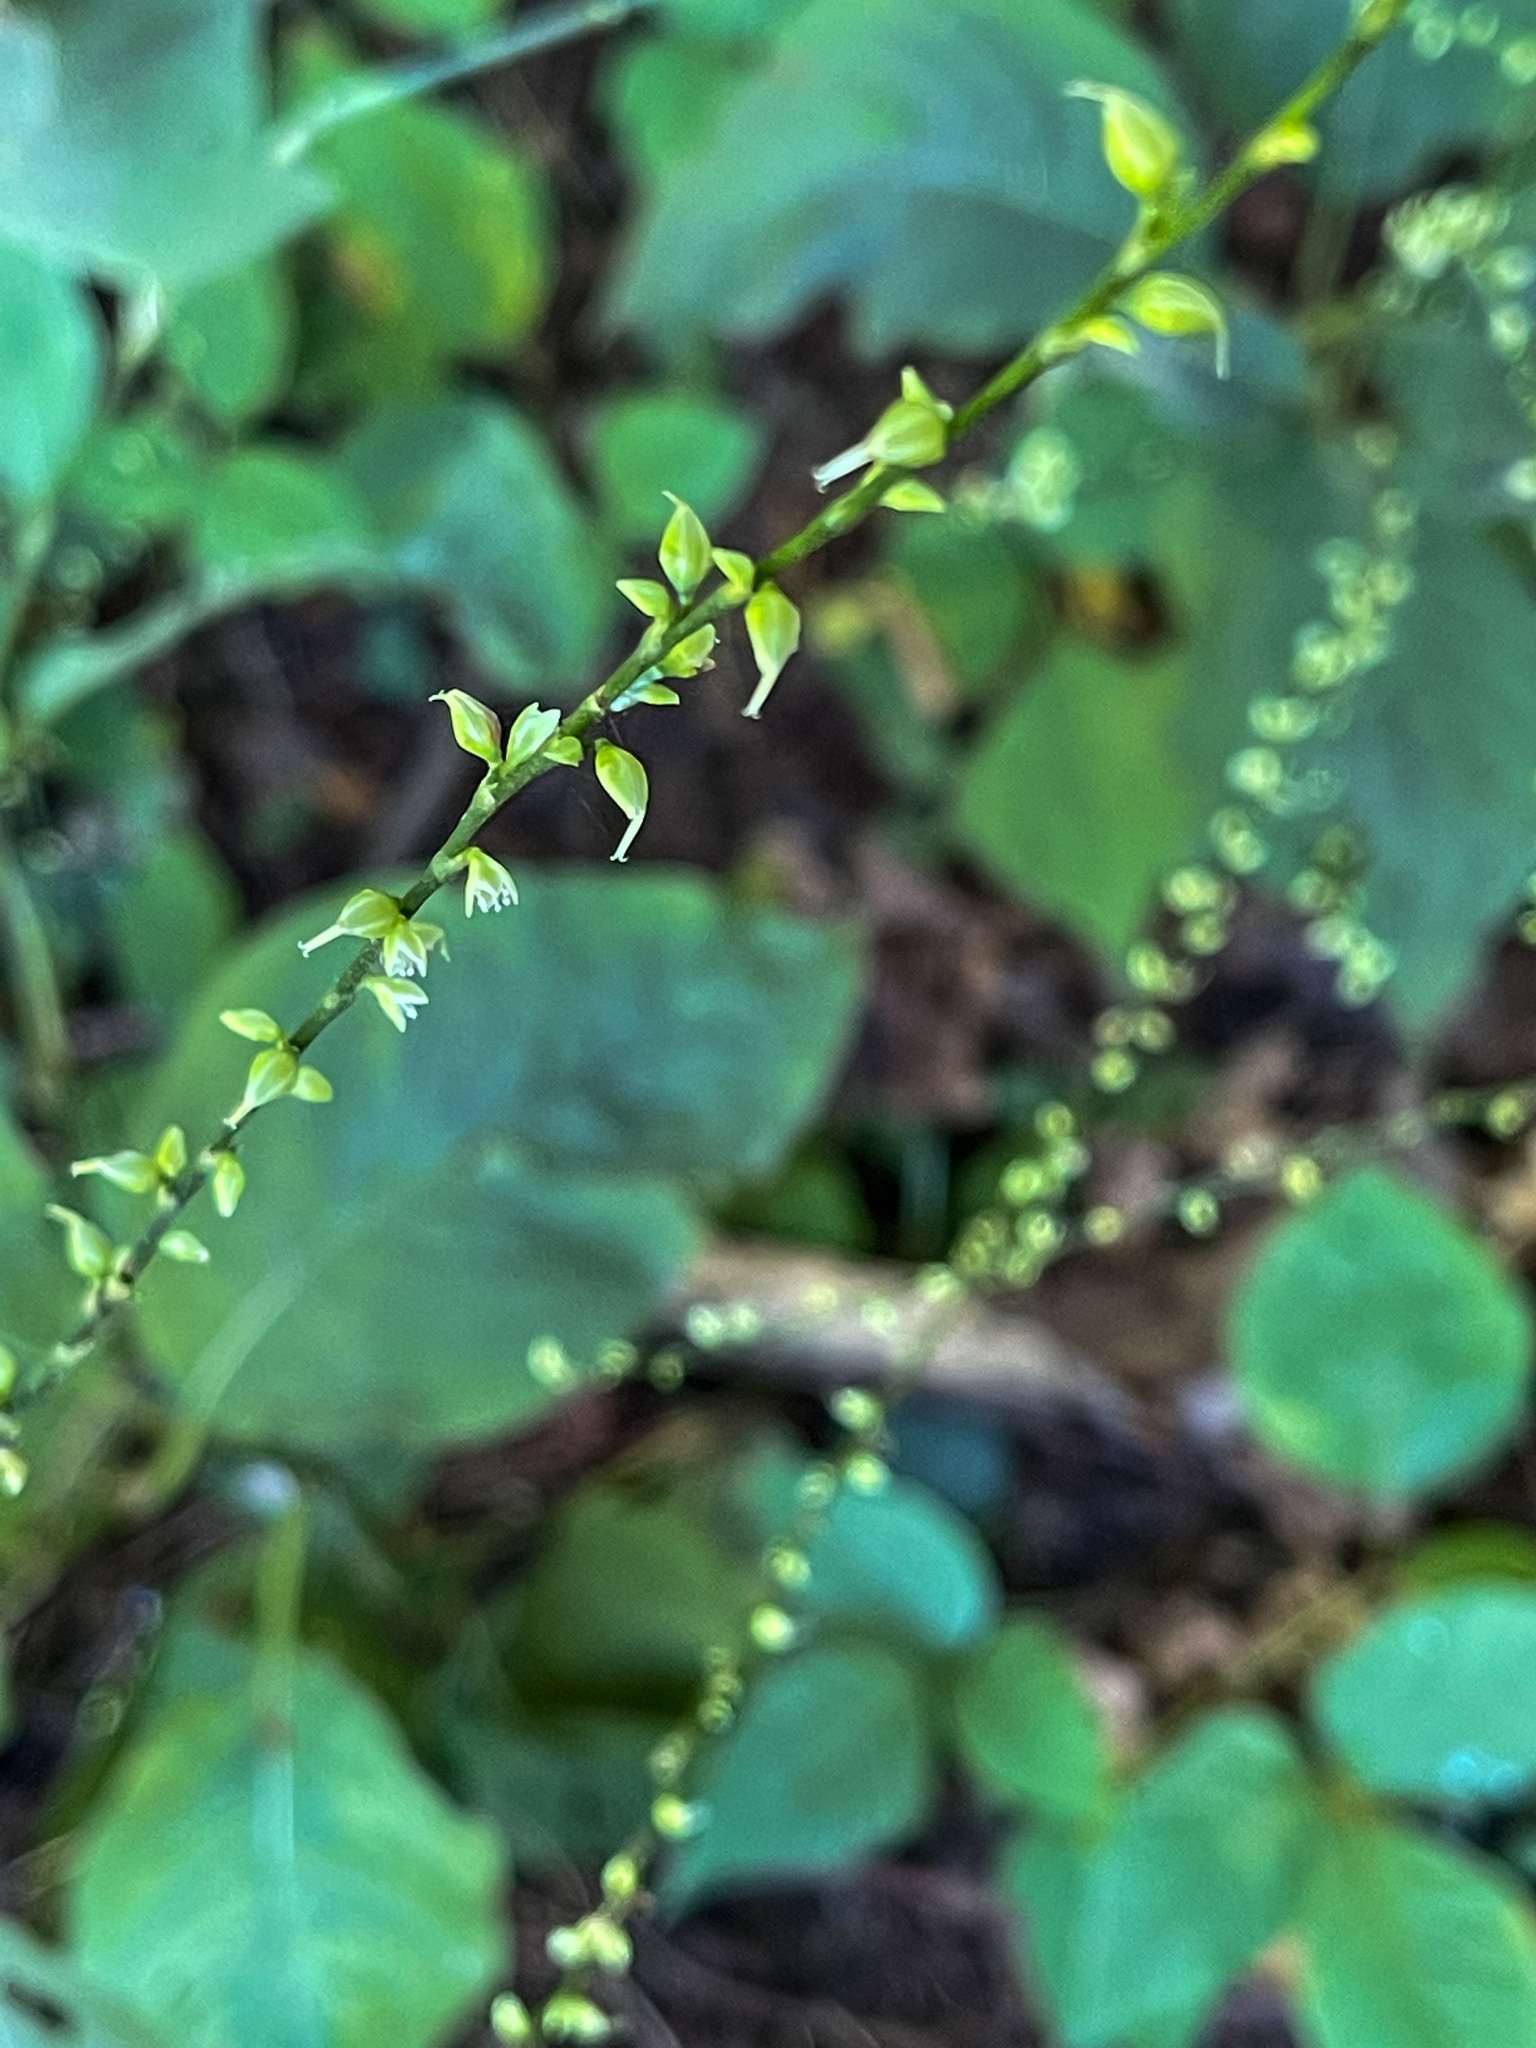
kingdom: Plantae
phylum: Tracheophyta
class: Magnoliopsida
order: Caryophyllales
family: Polygonaceae
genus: Persicaria
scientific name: Persicaria virginiana
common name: Jumpseed
